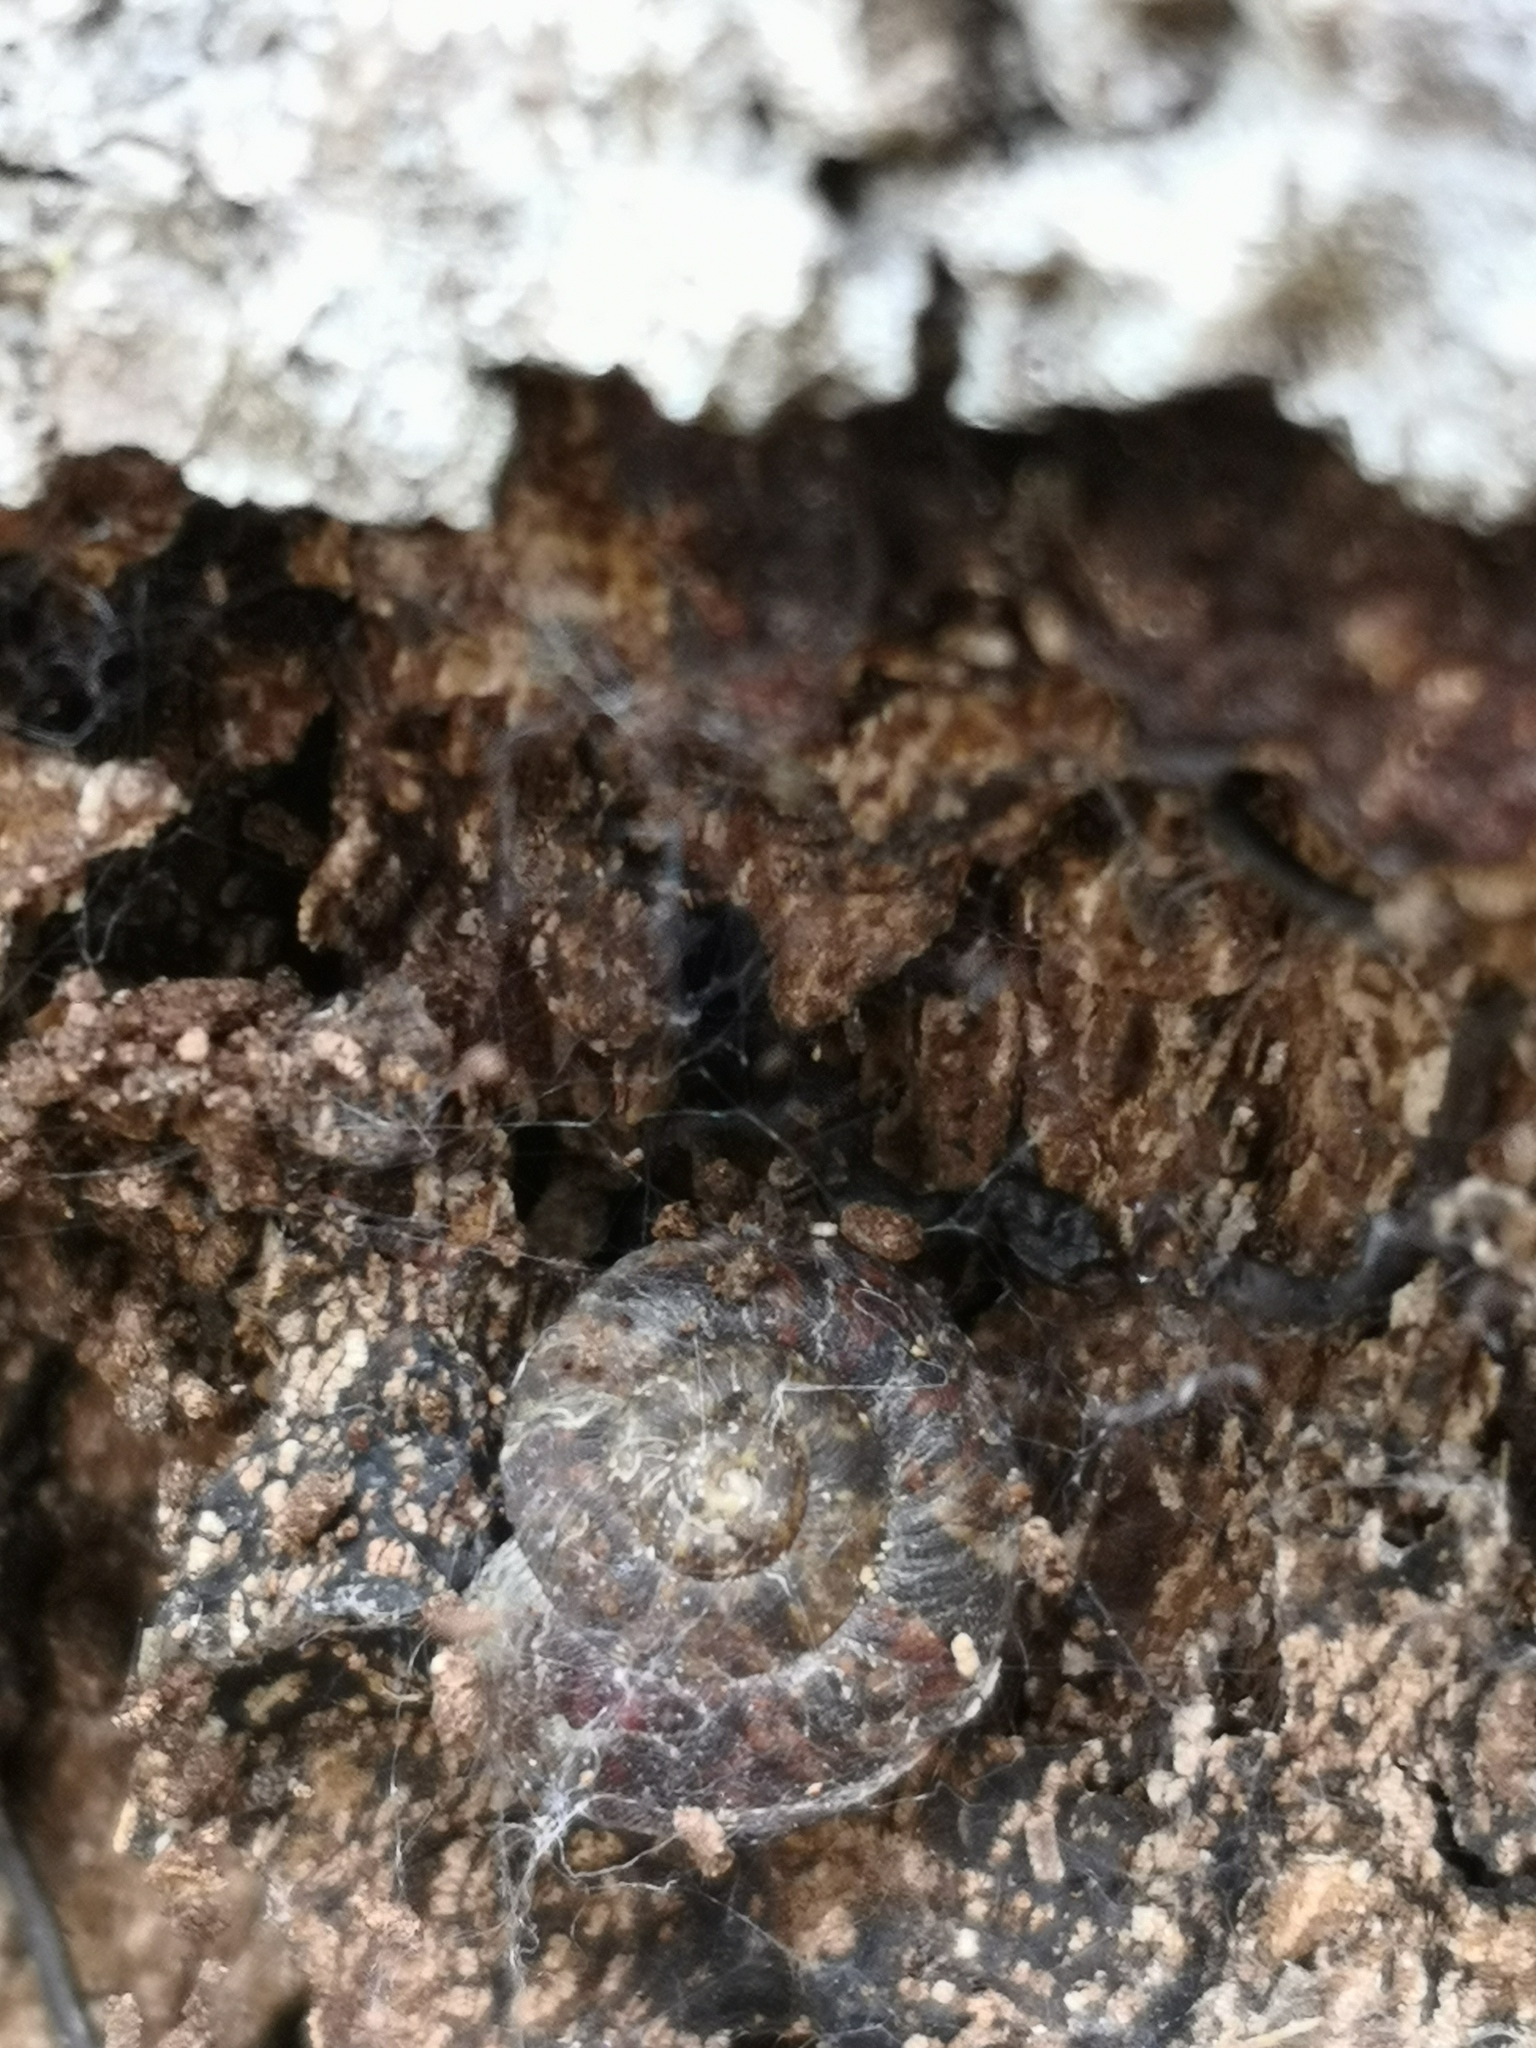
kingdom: Animalia
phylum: Mollusca
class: Gastropoda
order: Stylommatophora
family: Helicidae
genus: Helicigona
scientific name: Helicigona lapicida
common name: Lapidary snail
